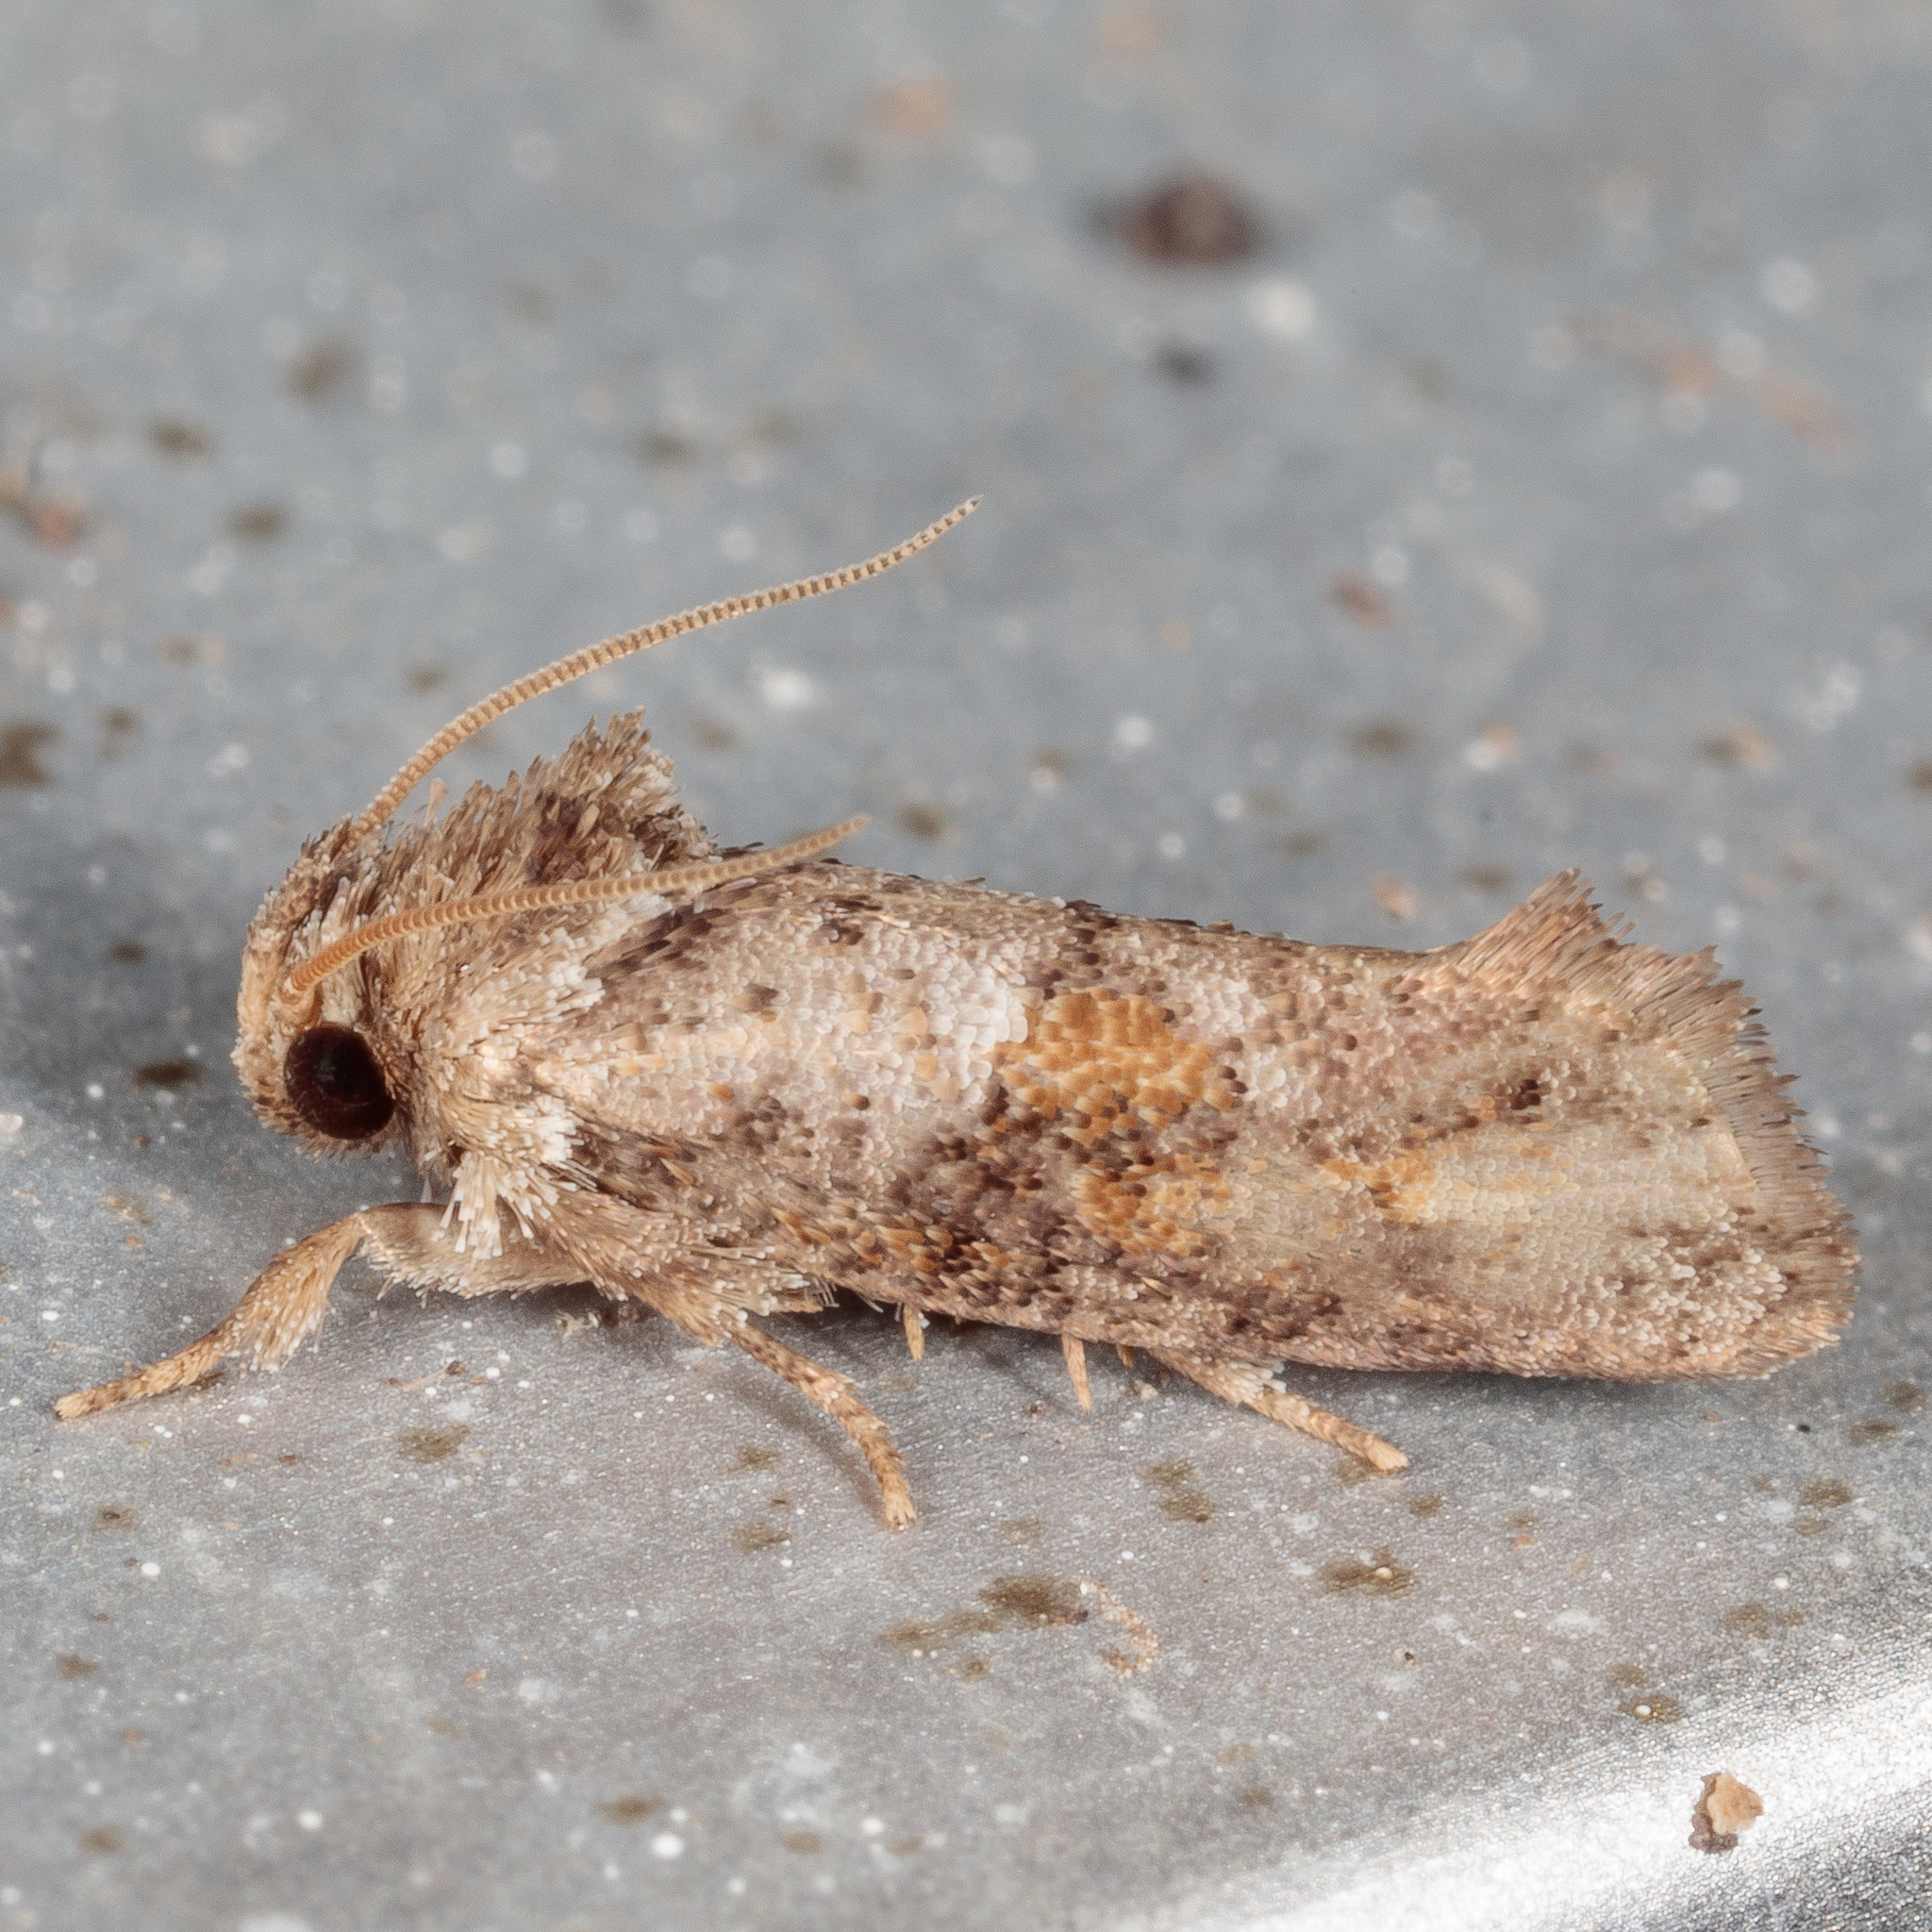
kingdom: Animalia
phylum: Arthropoda
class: Insecta
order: Lepidoptera
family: Tineidae
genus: Acrolophus
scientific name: Acrolophus piger
